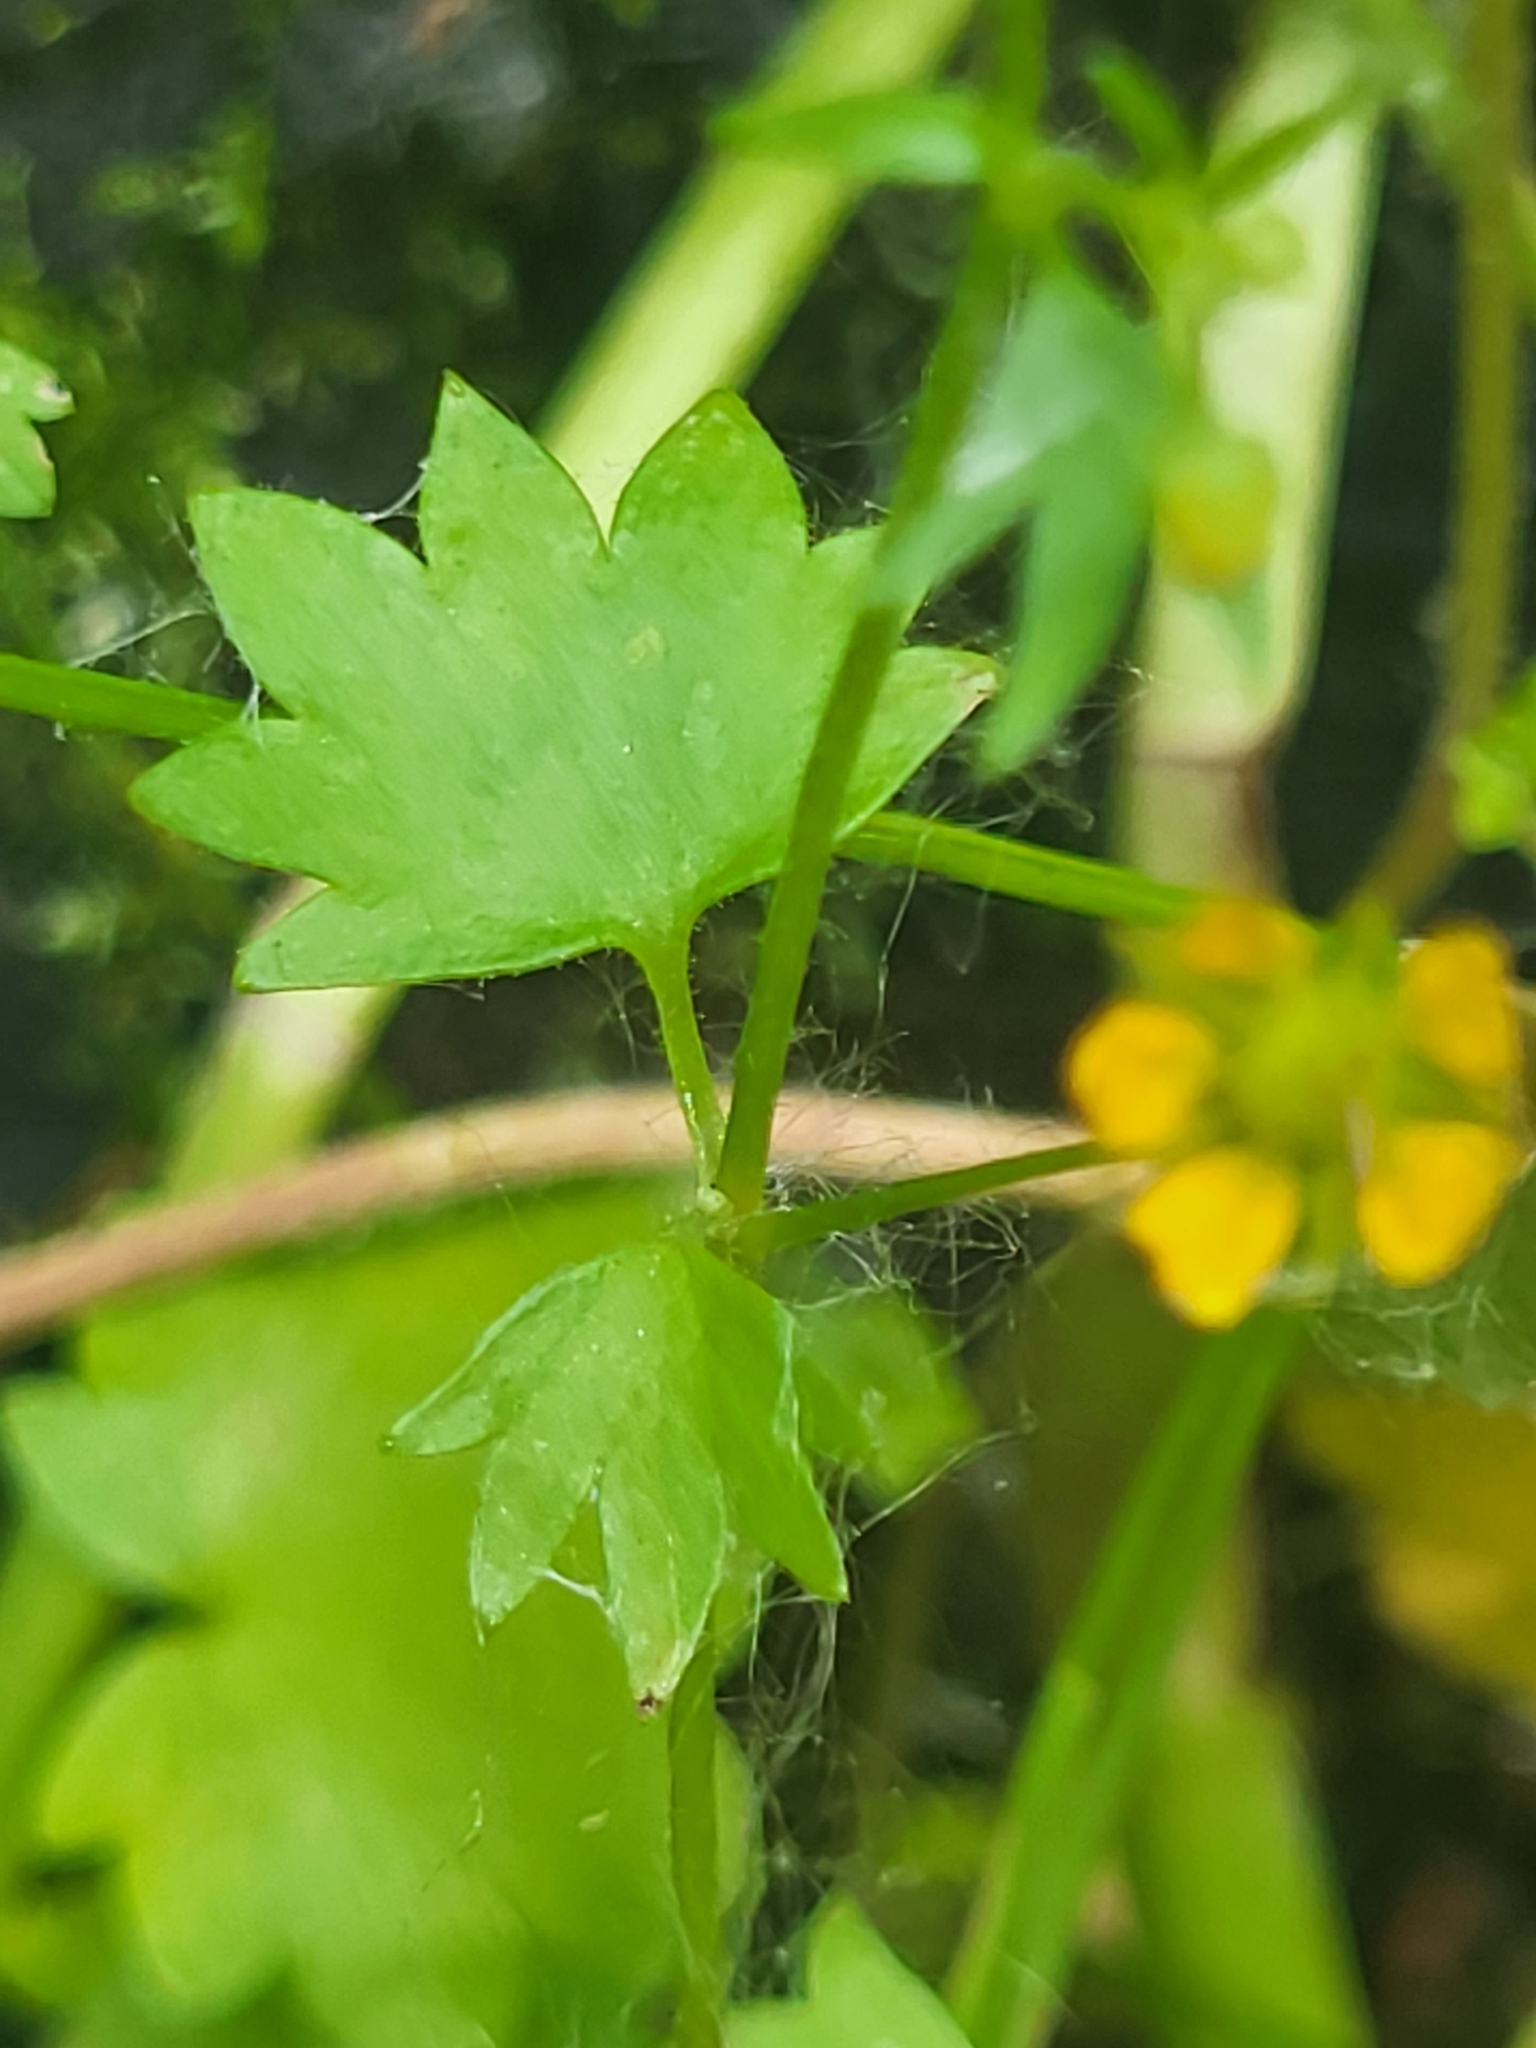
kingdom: Plantae
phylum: Tracheophyta
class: Magnoliopsida
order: Saxifragales
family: Saxifragaceae
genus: Saxifraga
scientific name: Saxifraga cymbalaria
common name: Celandine saxifrage
